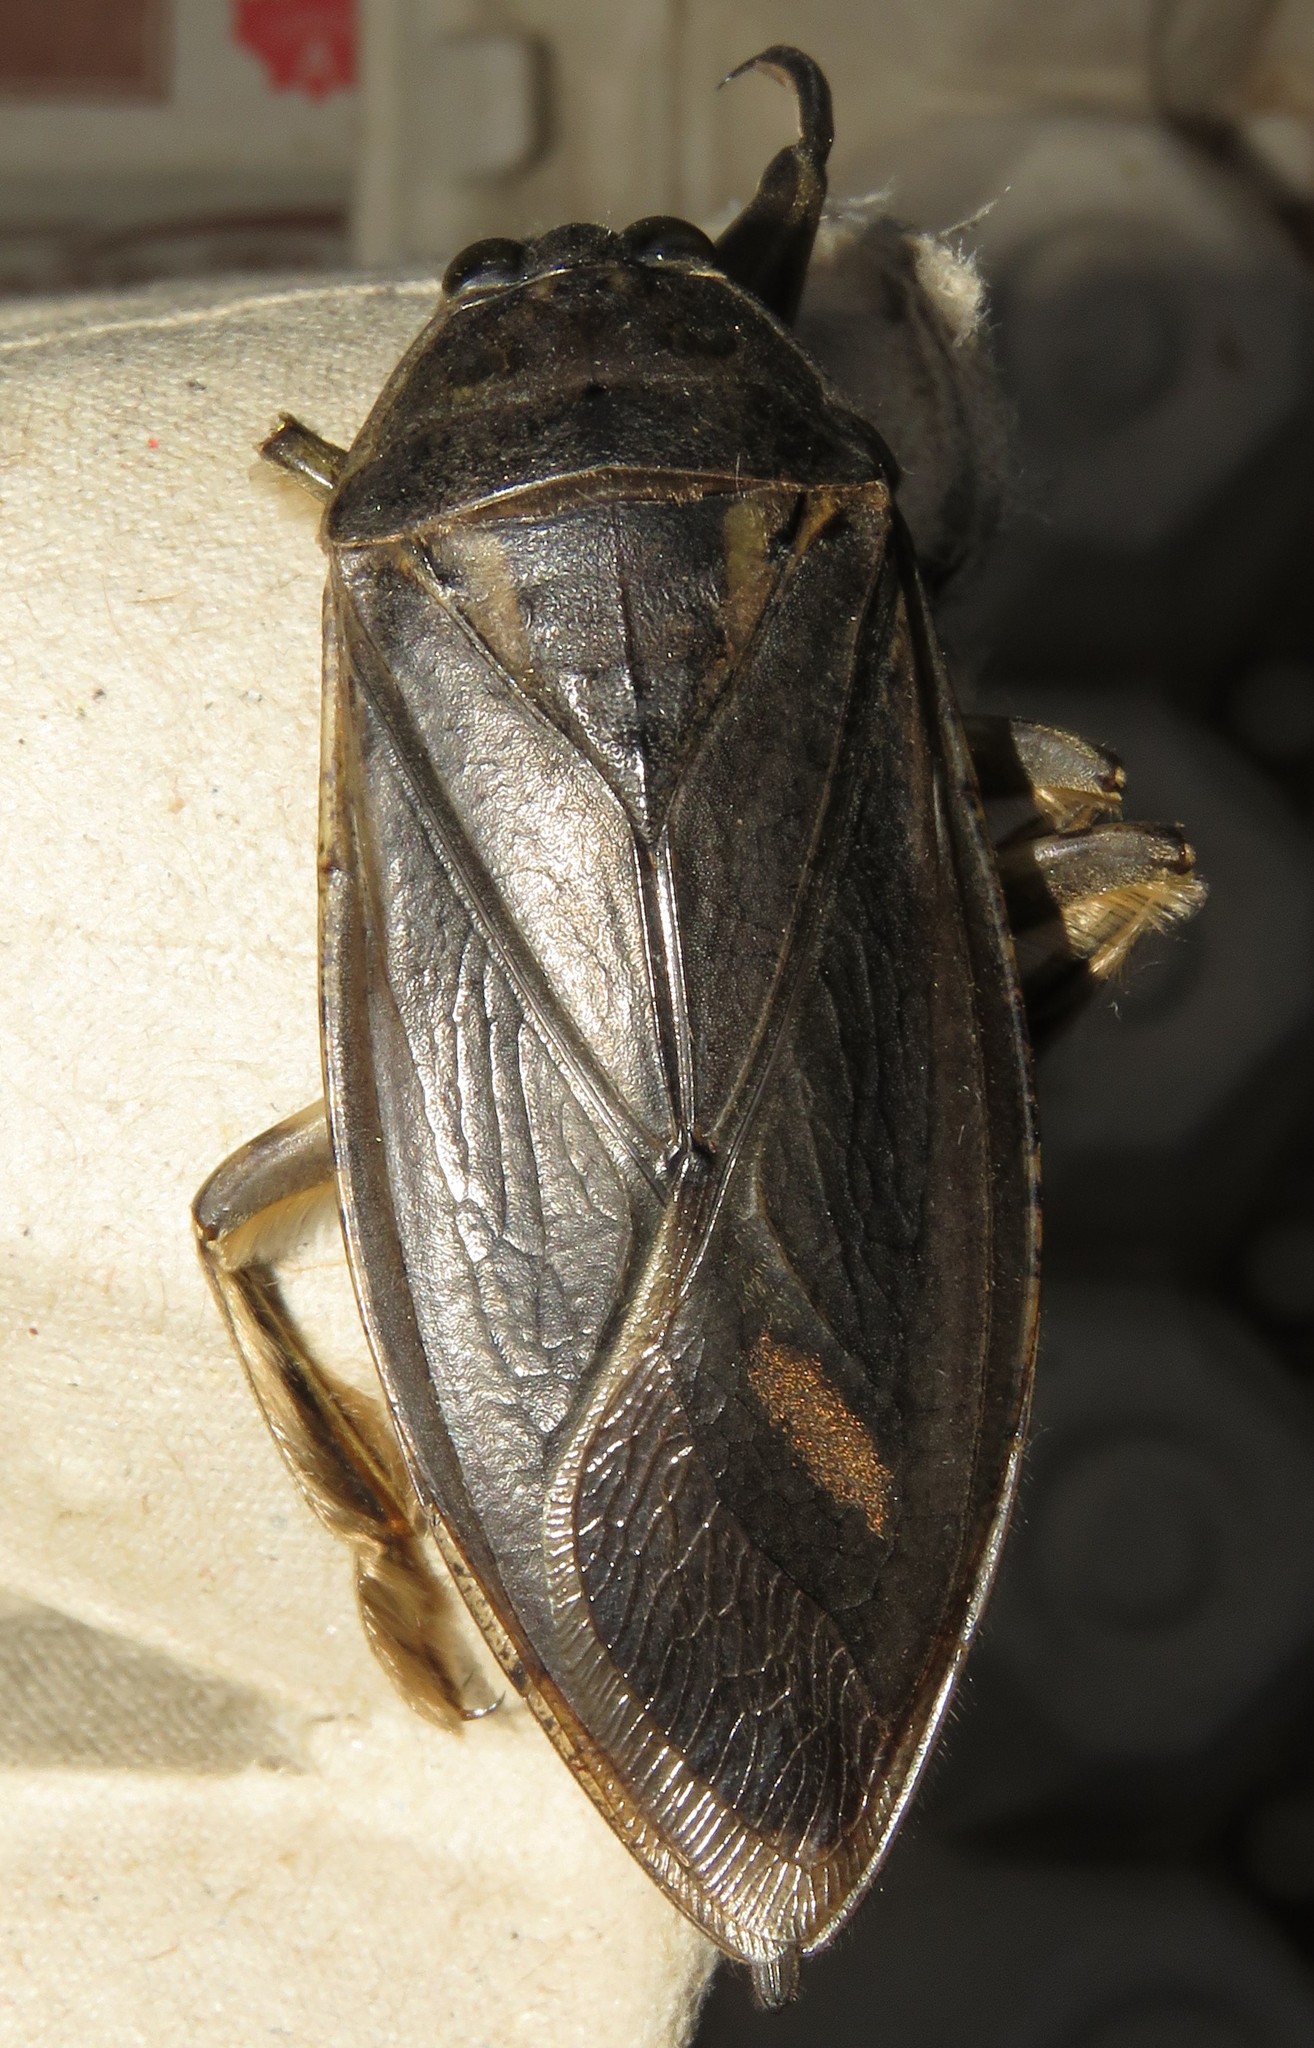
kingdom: Animalia
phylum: Arthropoda
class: Insecta
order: Hemiptera
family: Belostomatidae
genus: Lethocerus
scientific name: Lethocerus americanus
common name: Giant water bug
